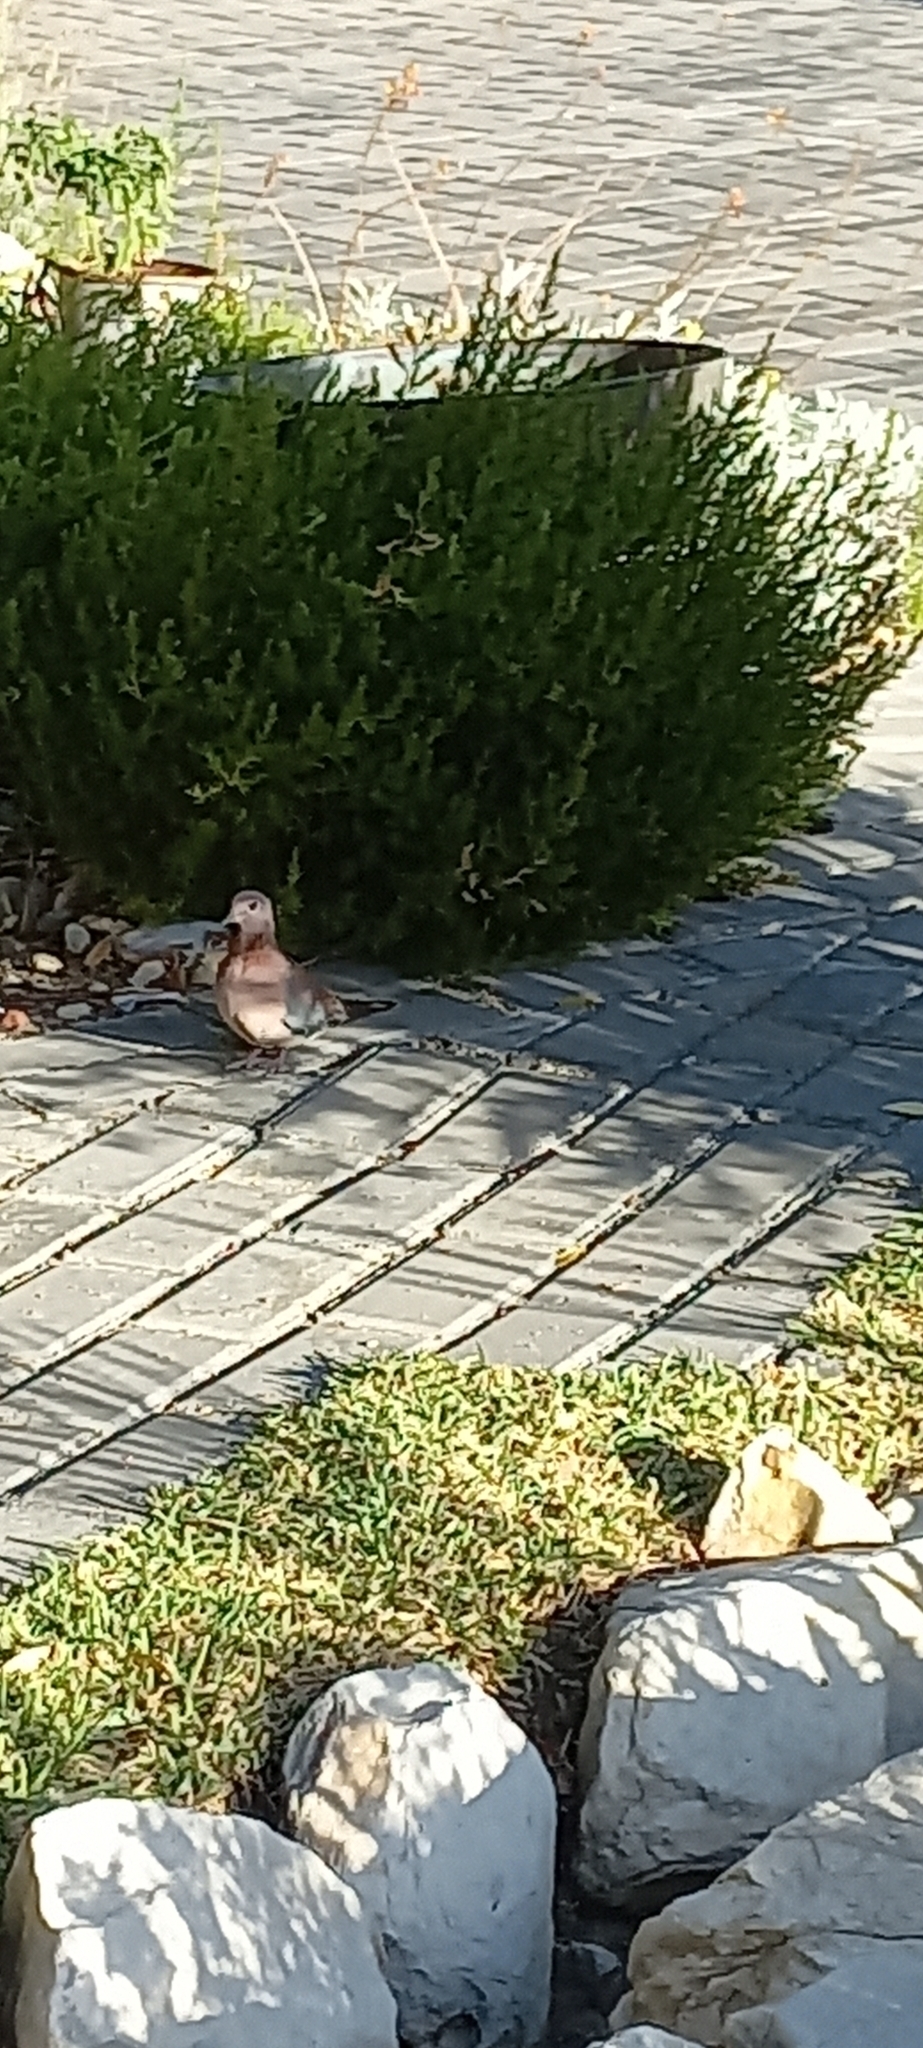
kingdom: Animalia
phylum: Chordata
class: Aves
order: Columbiformes
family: Columbidae
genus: Spilopelia
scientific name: Spilopelia senegalensis
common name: Laughing dove
